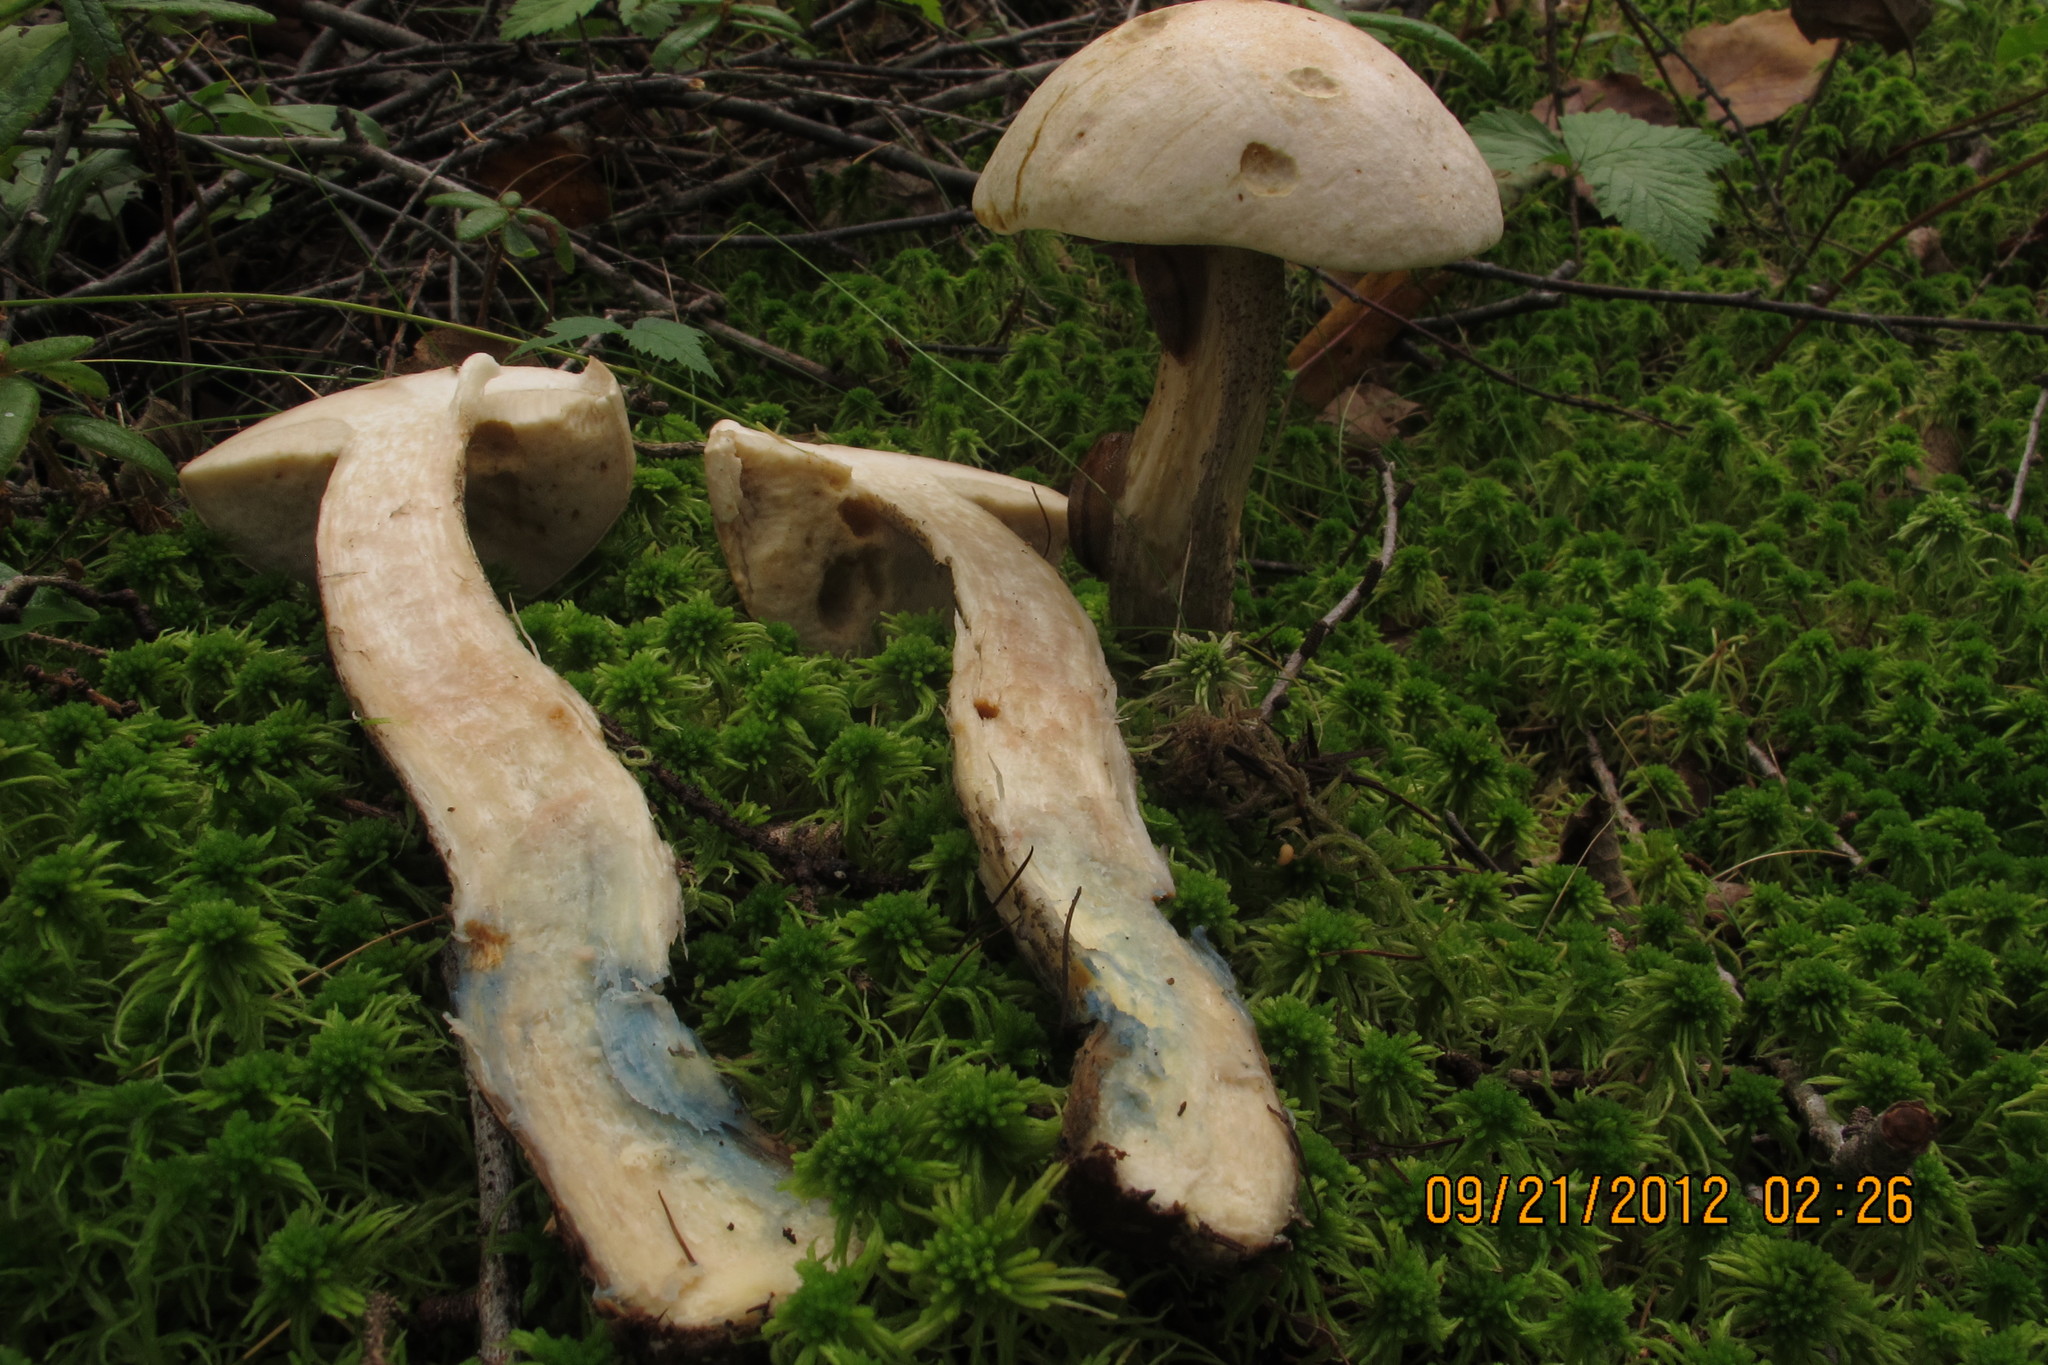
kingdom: Fungi
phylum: Basidiomycota
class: Agaricomycetes
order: Boletales
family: Boletaceae
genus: Leccinum
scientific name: Leccinum holopus
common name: Ghost bolete
